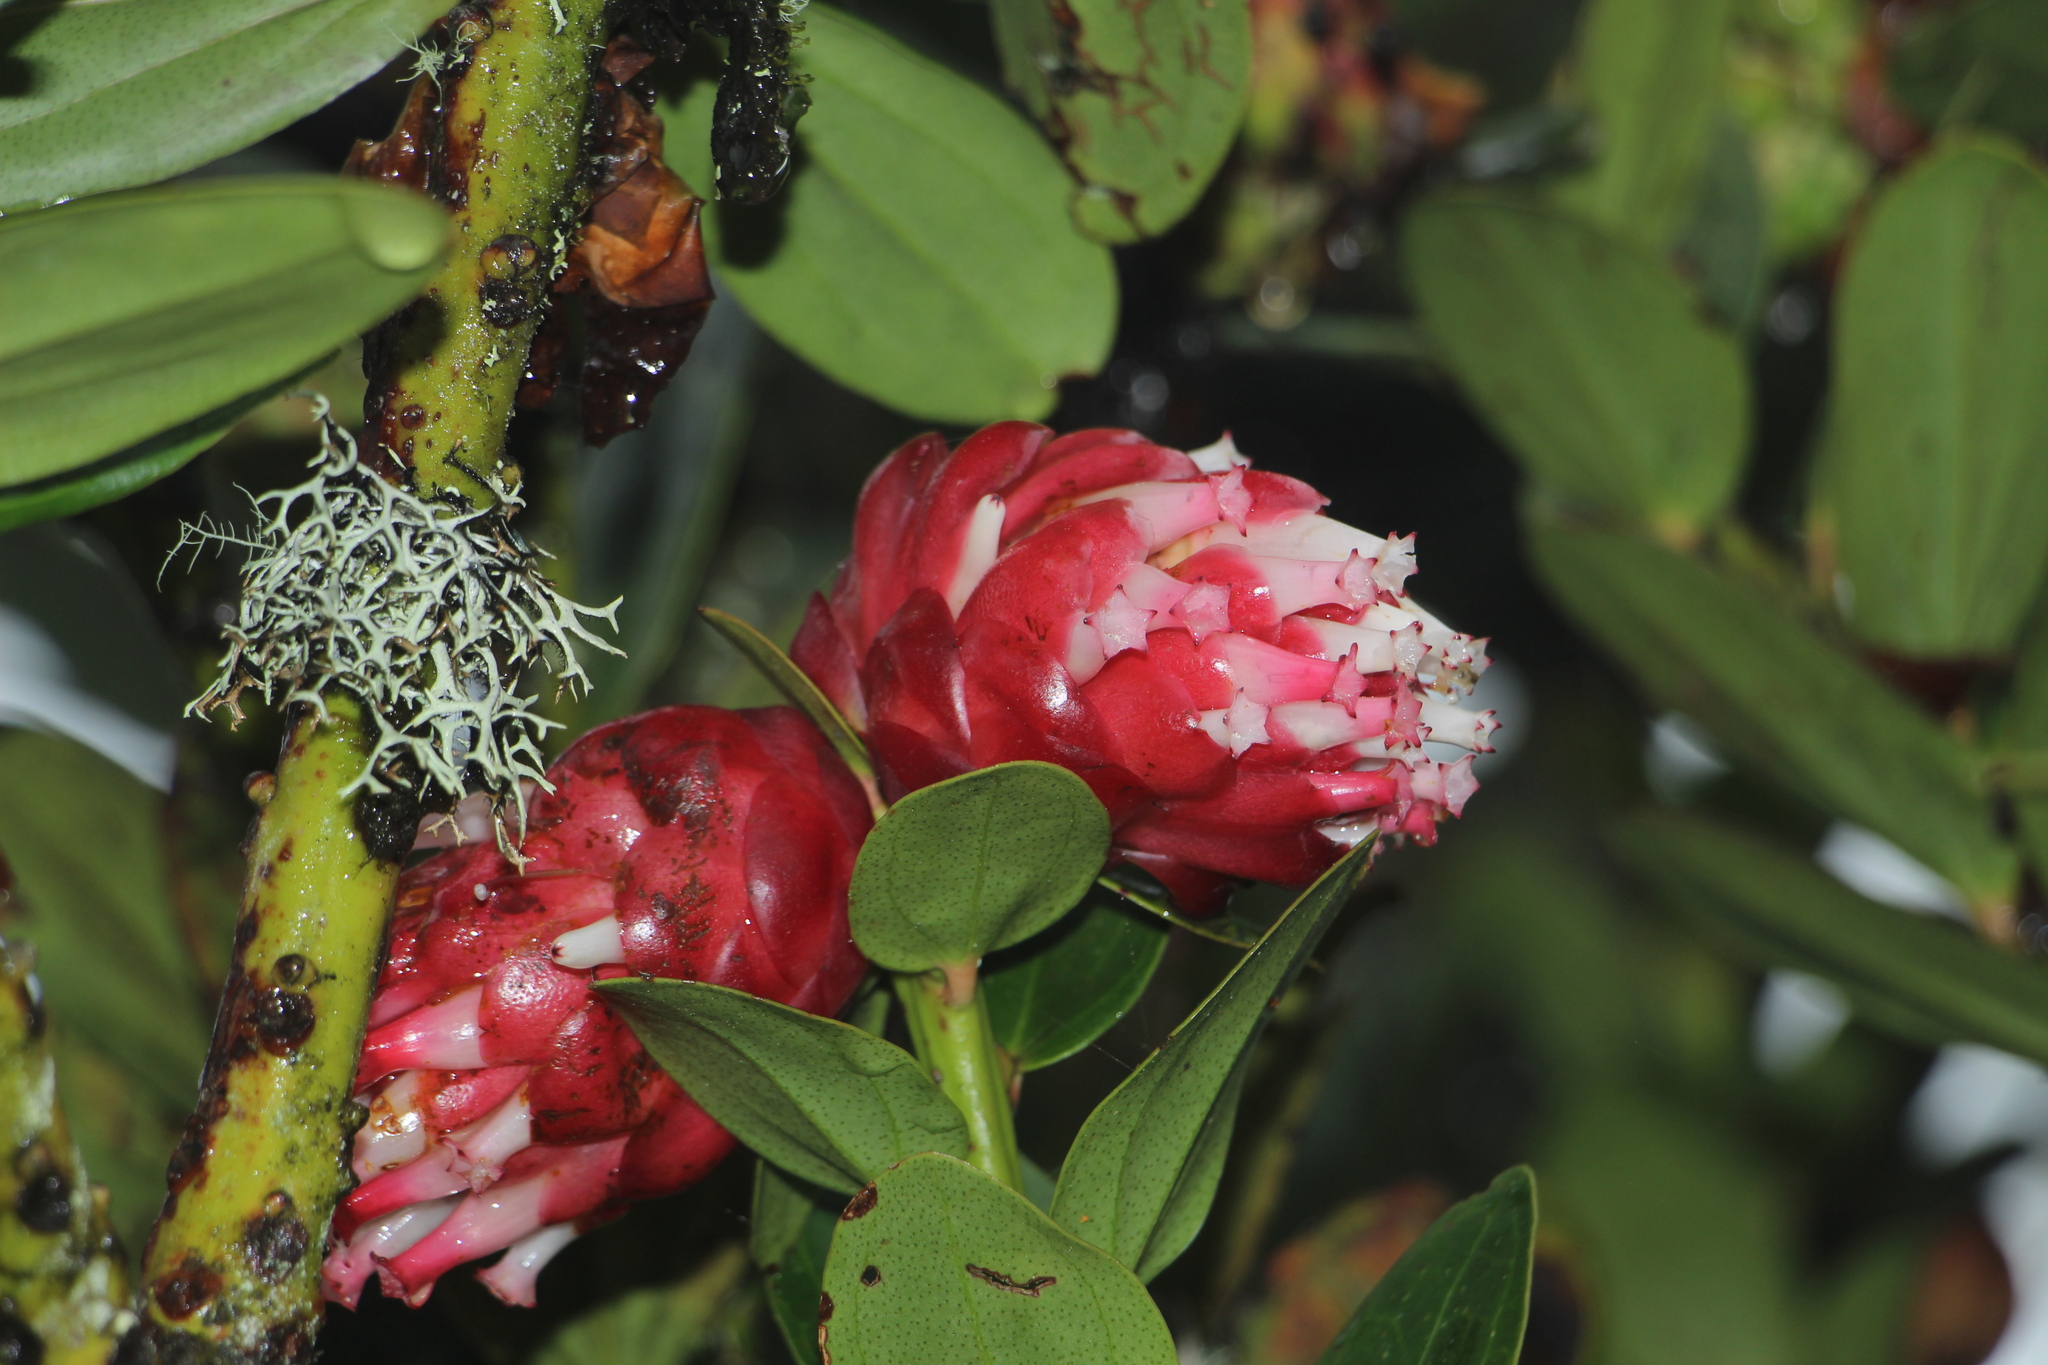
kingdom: Plantae
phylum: Tracheophyta
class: Magnoliopsida
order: Ericales
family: Ericaceae
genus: Cavendishia
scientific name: Cavendishia nitida
